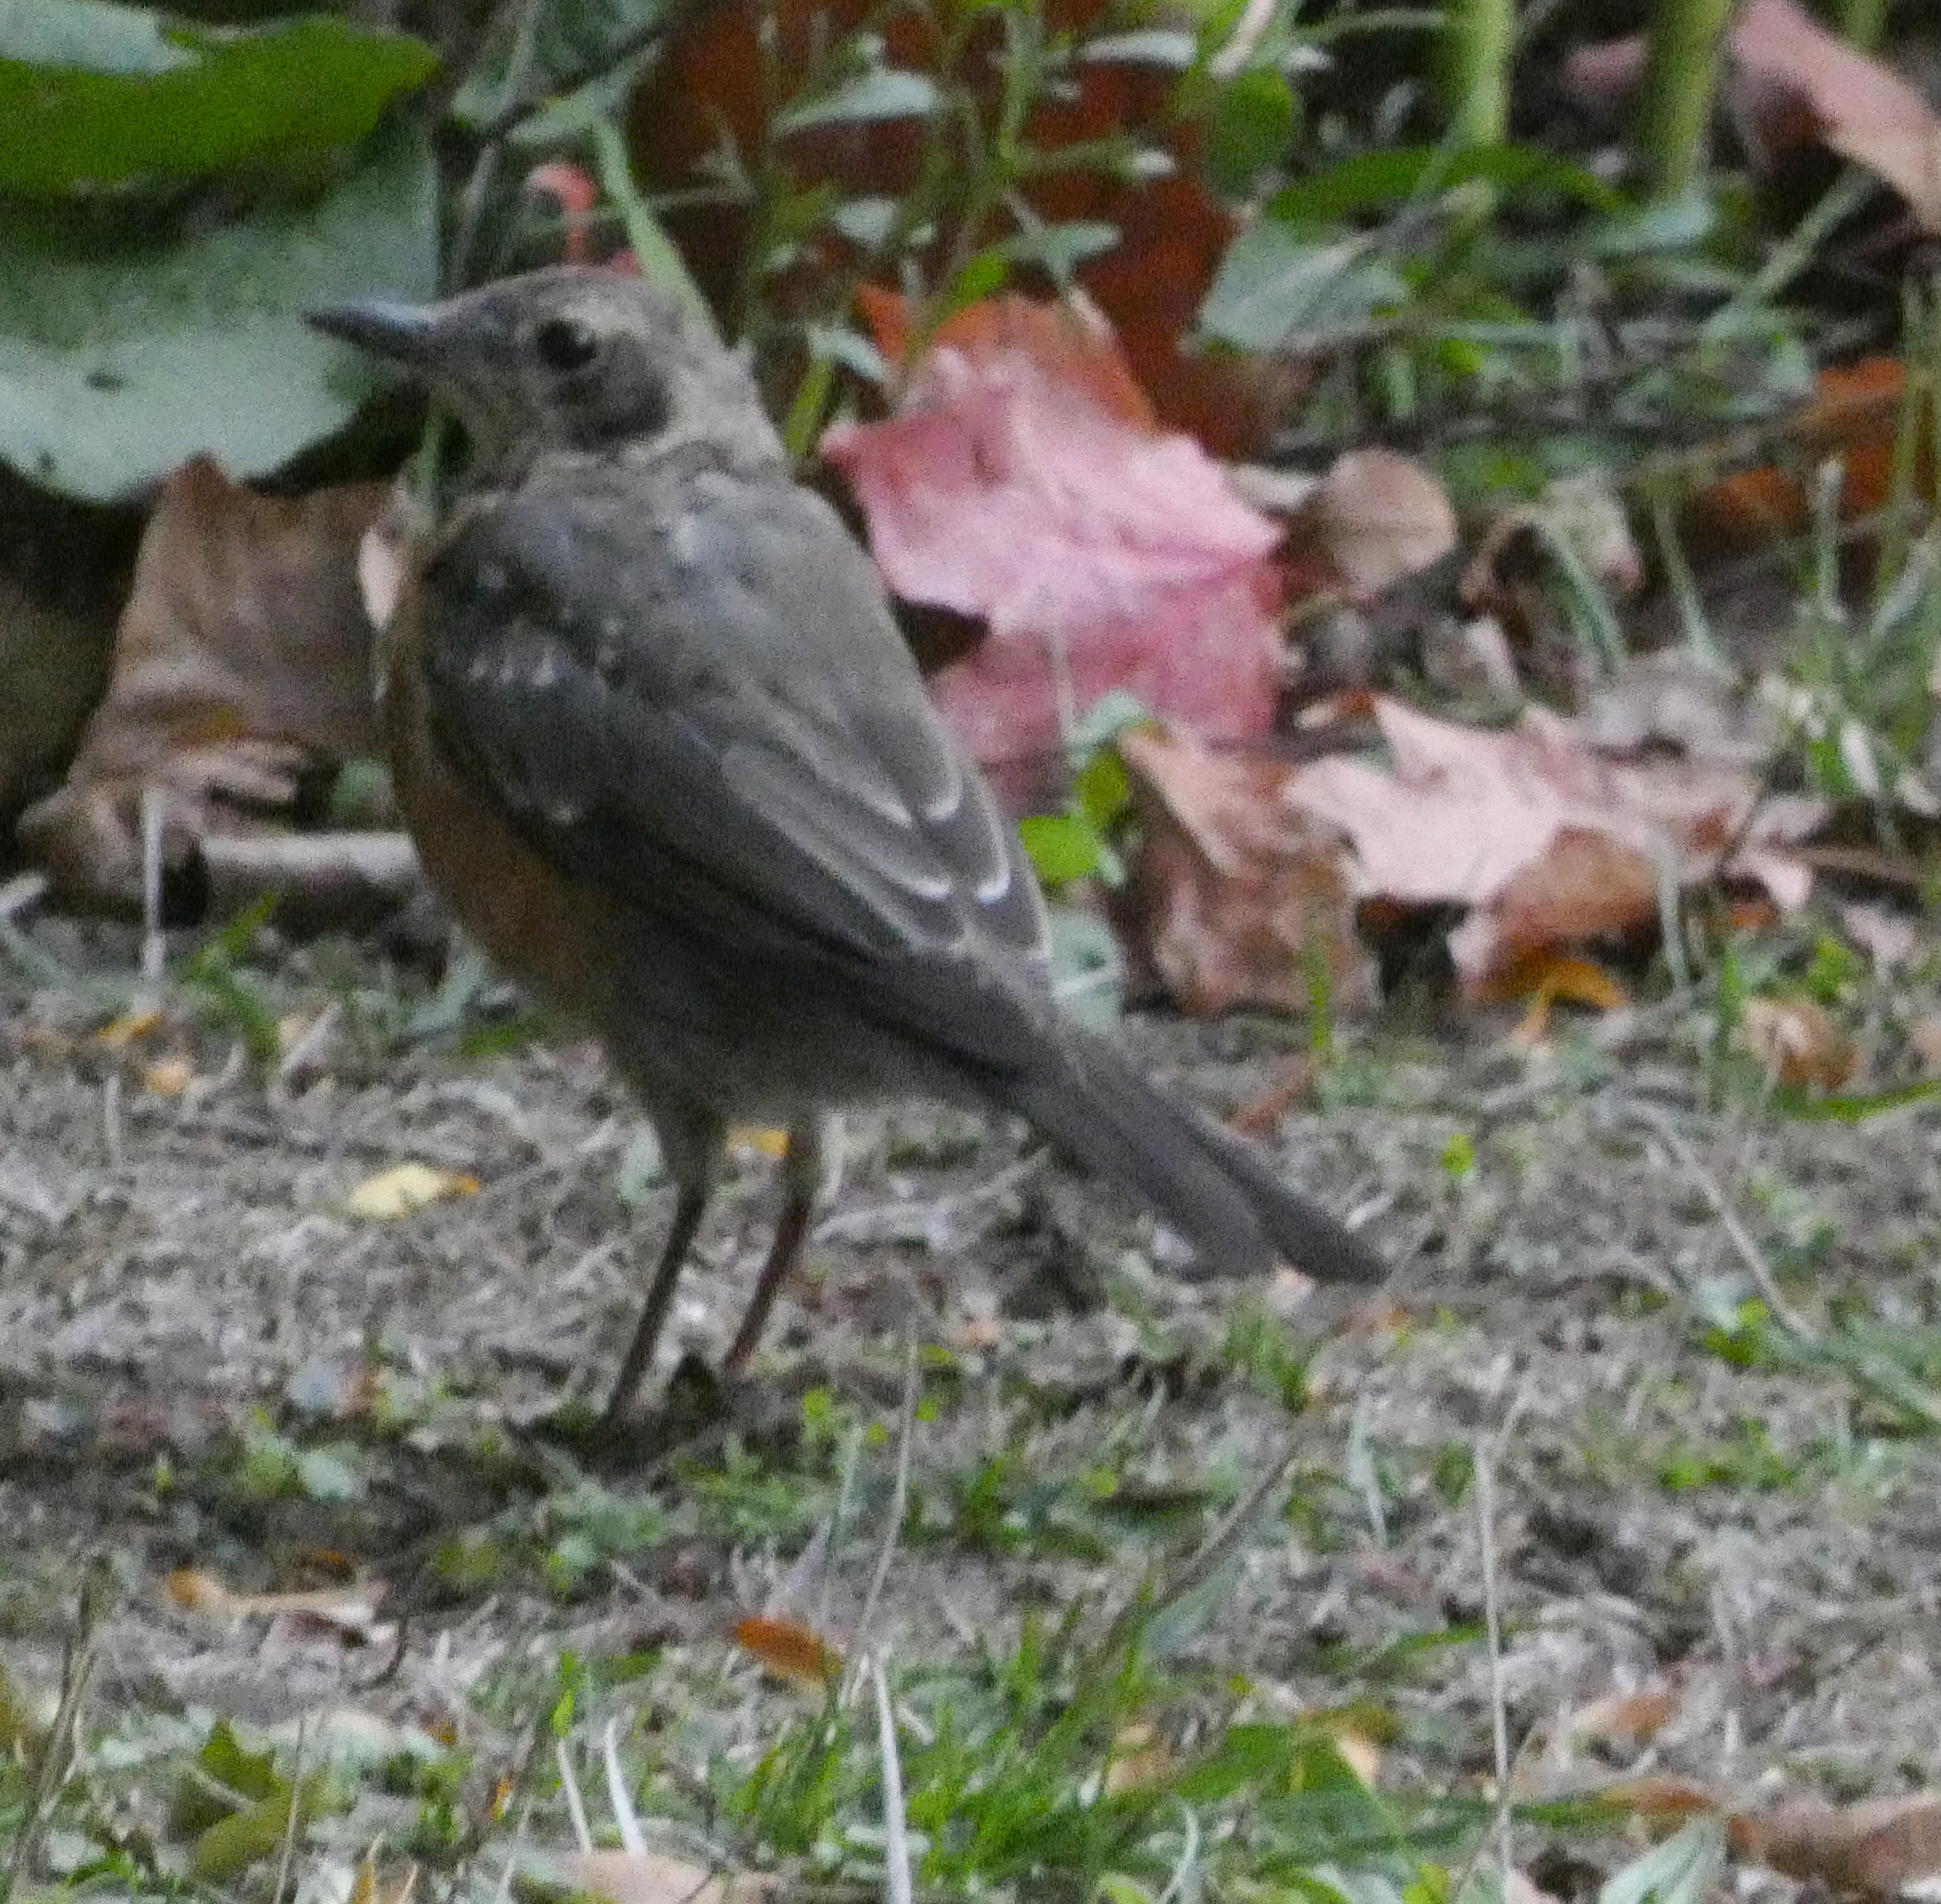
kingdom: Animalia
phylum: Chordata
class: Aves
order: Passeriformes
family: Turdidae
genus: Turdus
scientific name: Turdus migratorius
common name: American robin
